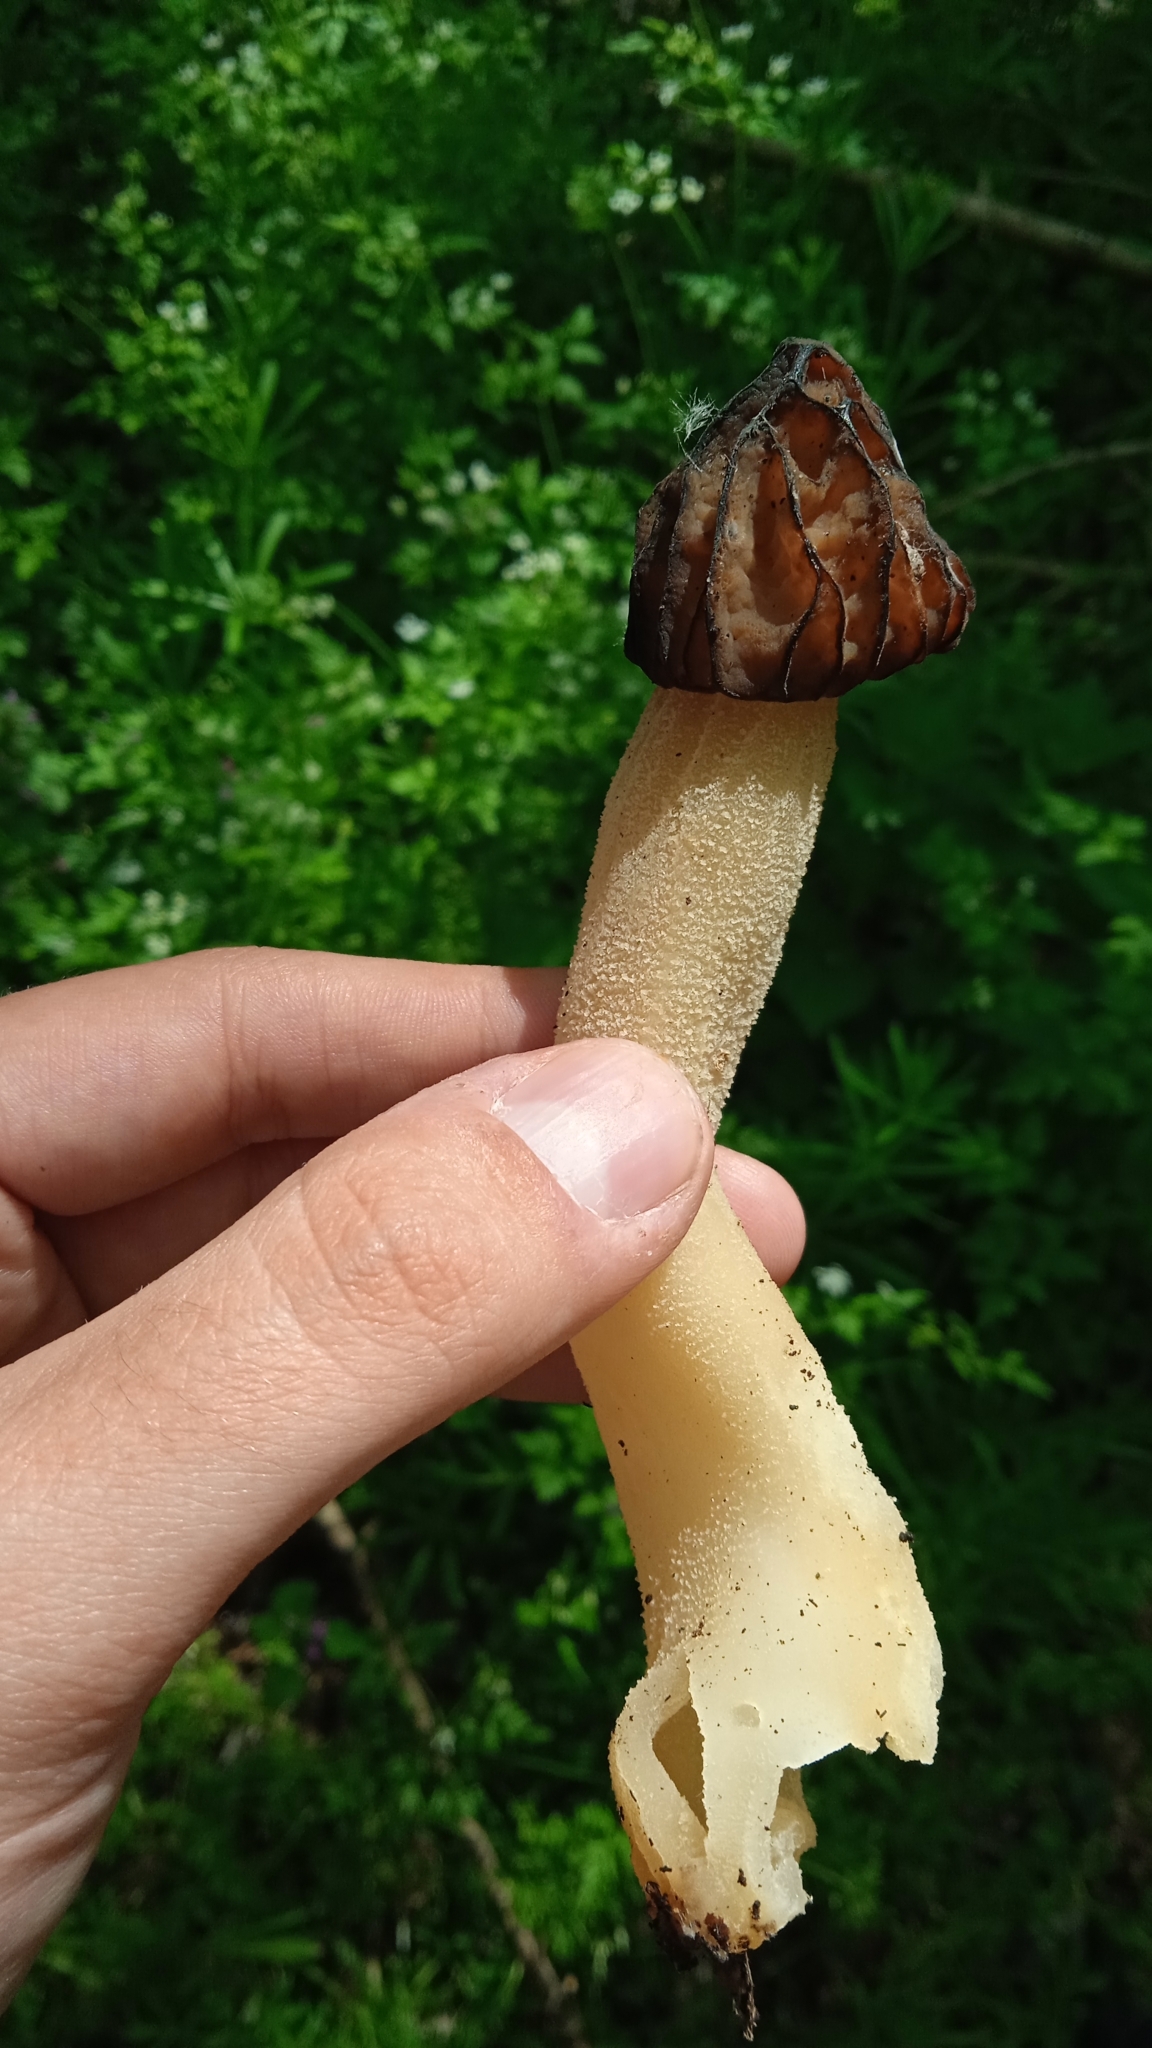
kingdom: Fungi
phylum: Ascomycota
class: Pezizomycetes
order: Pezizales
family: Morchellaceae
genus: Morchella
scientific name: Morchella semilibera
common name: Semifree morel
